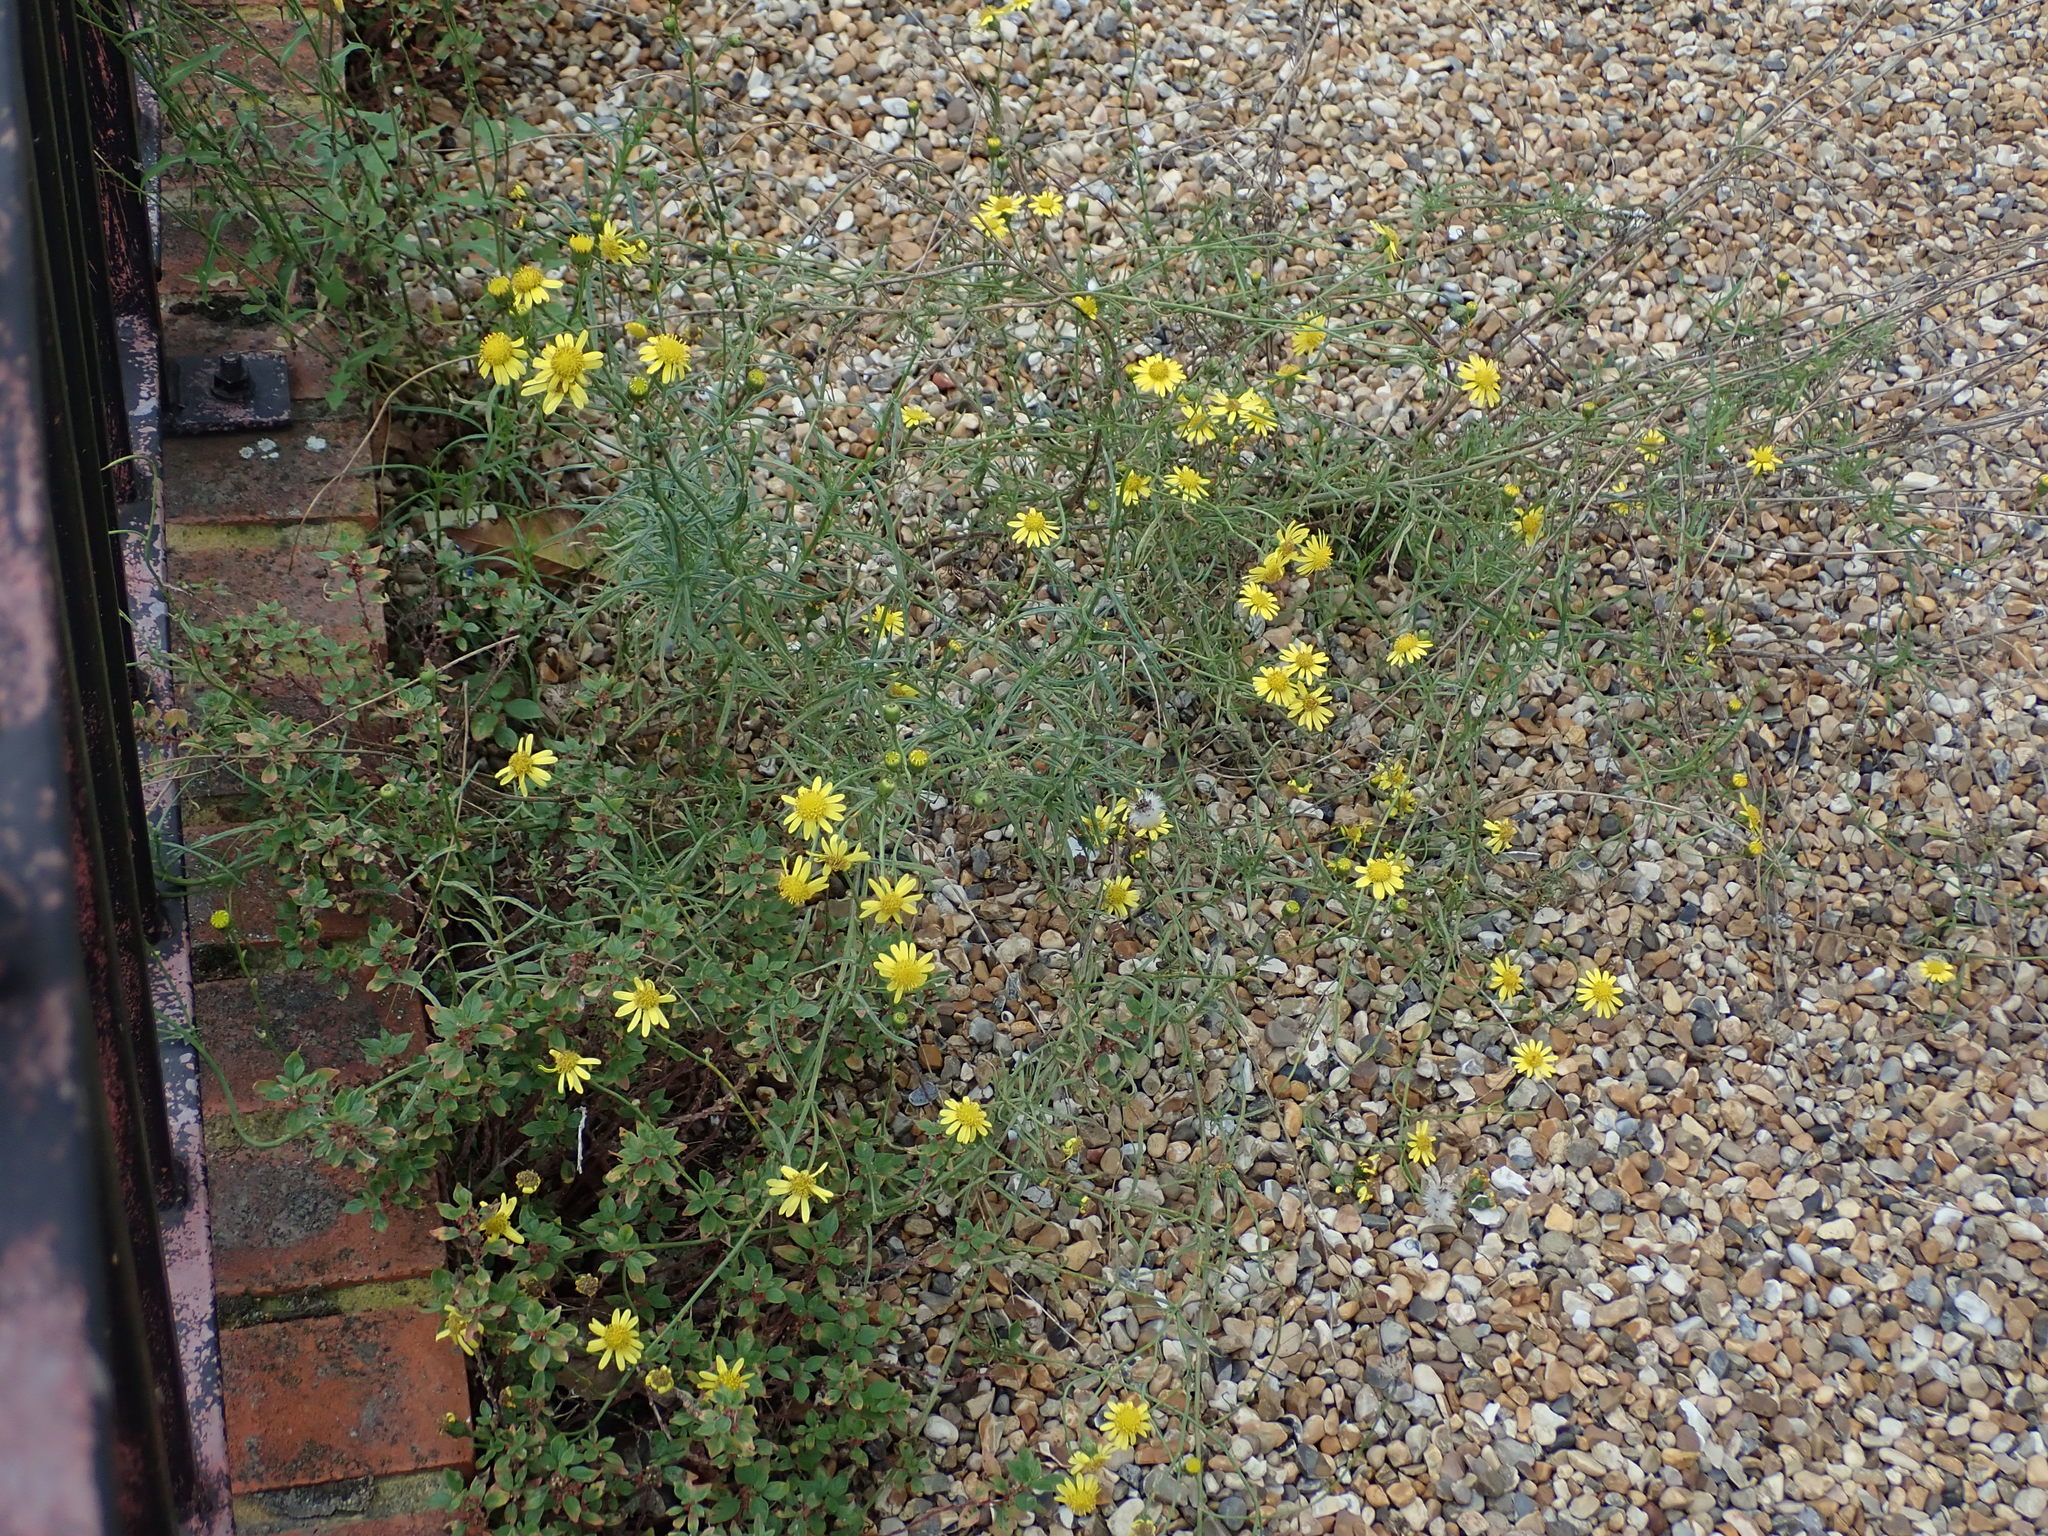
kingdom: Plantae
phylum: Tracheophyta
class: Magnoliopsida
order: Asterales
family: Asteraceae
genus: Senecio
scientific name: Senecio inaequidens
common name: Narrow-leaved ragwort
